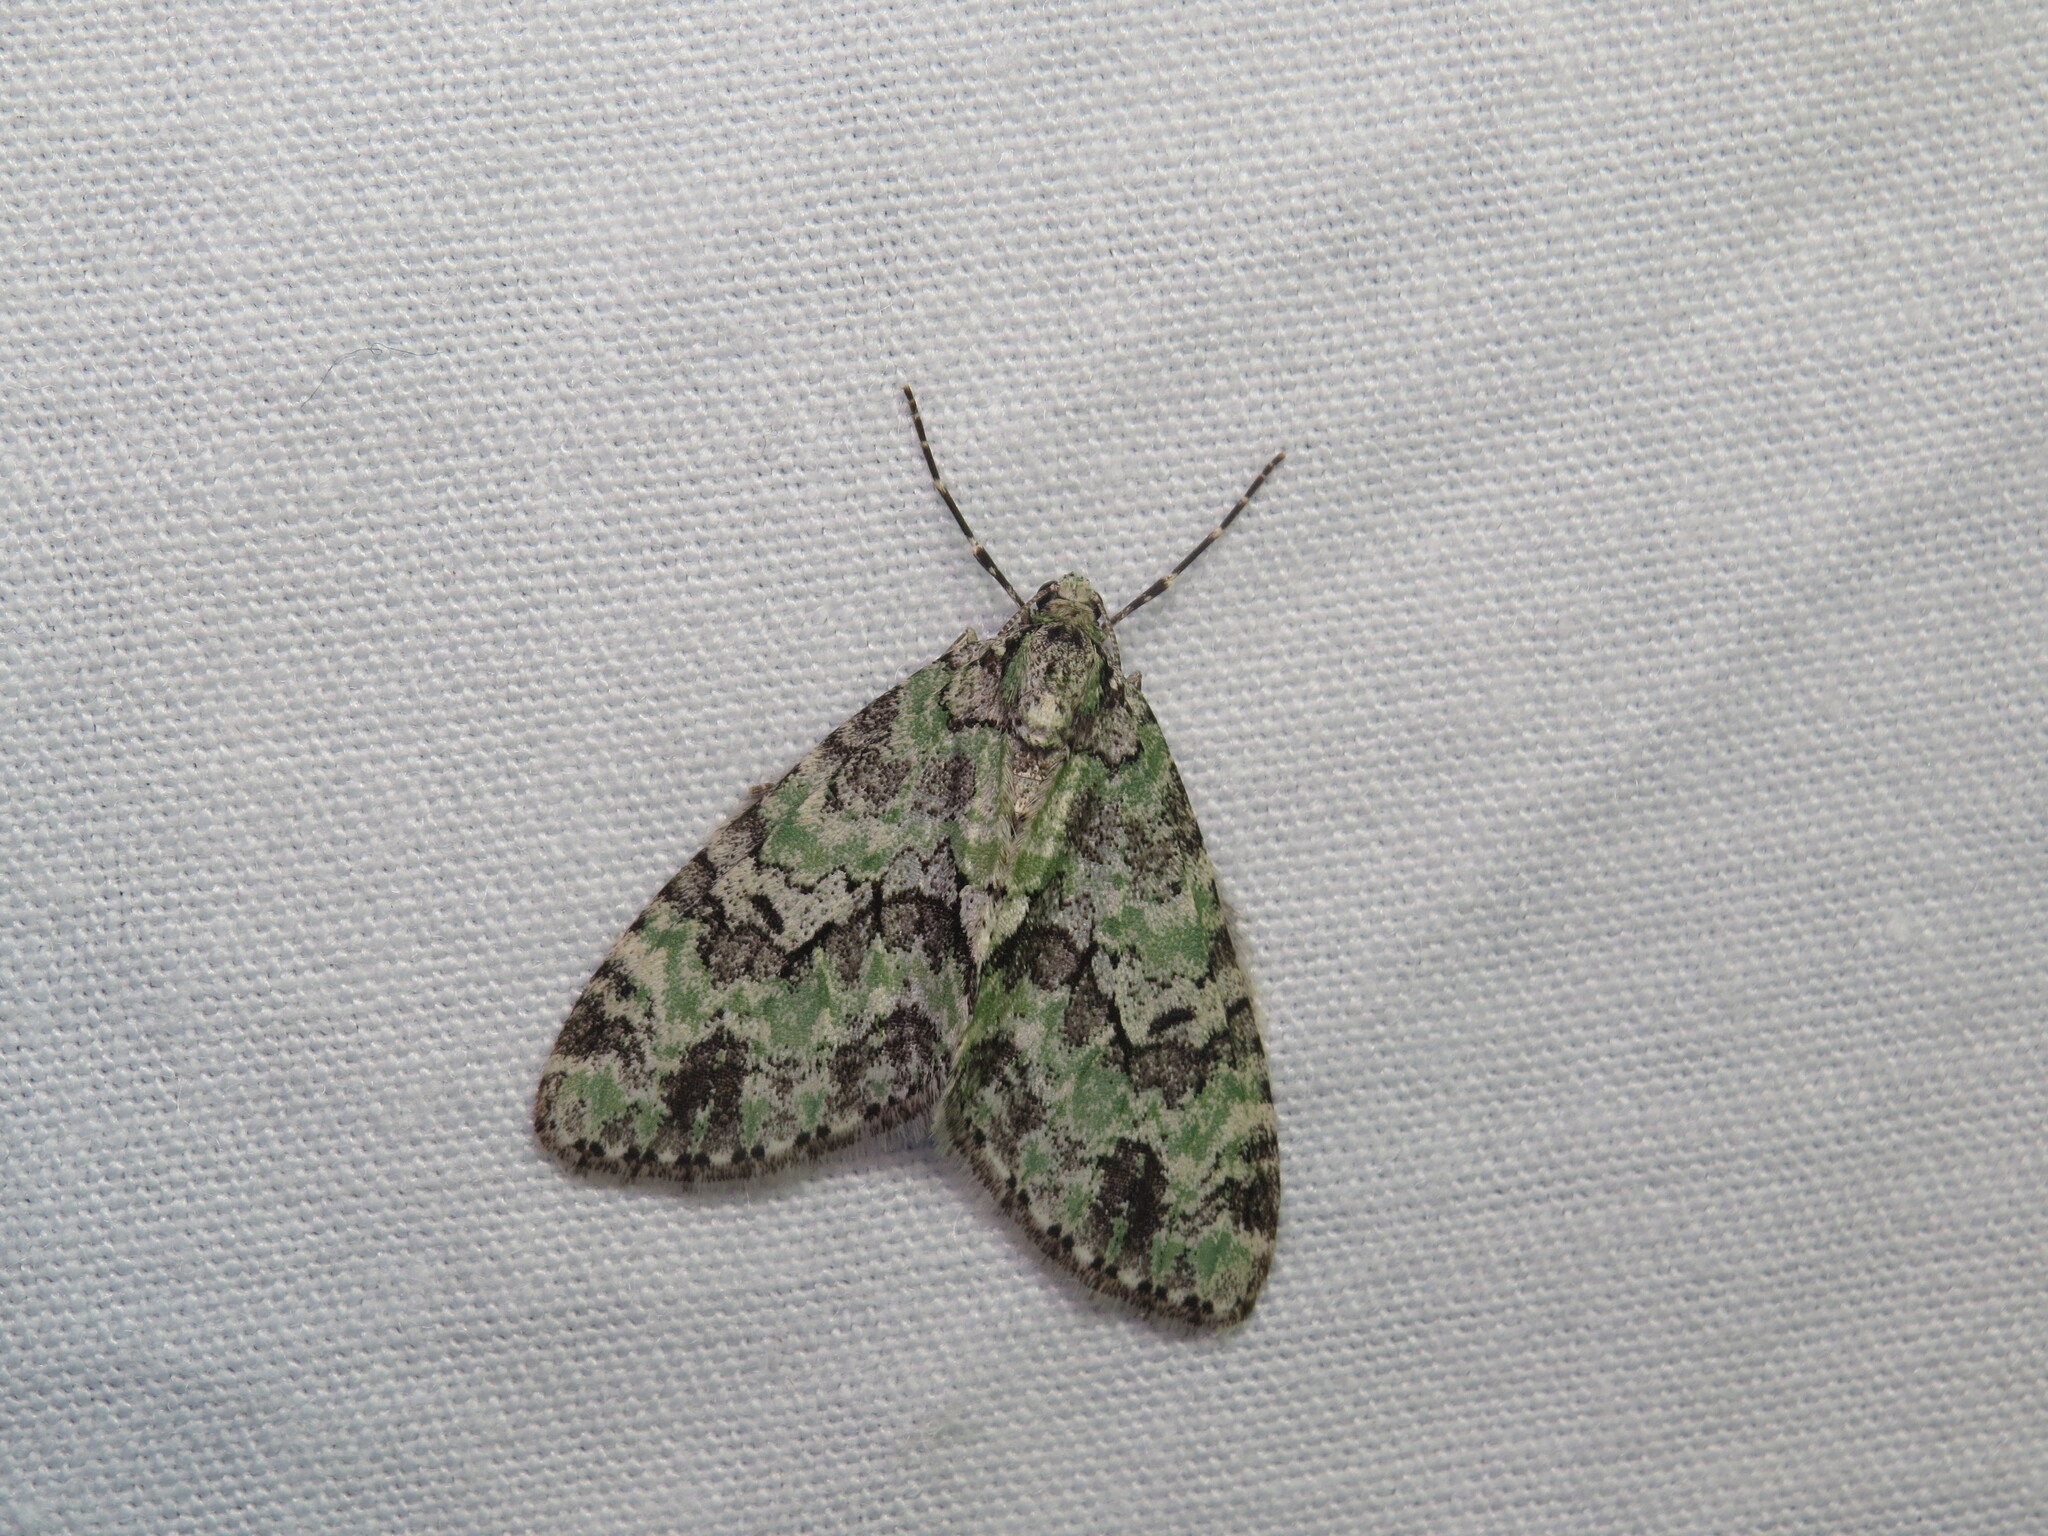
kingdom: Animalia
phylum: Arthropoda
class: Insecta
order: Lepidoptera
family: Geometridae
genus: Cladara
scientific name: Cladara limitaria
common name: Mottled gray carpet
